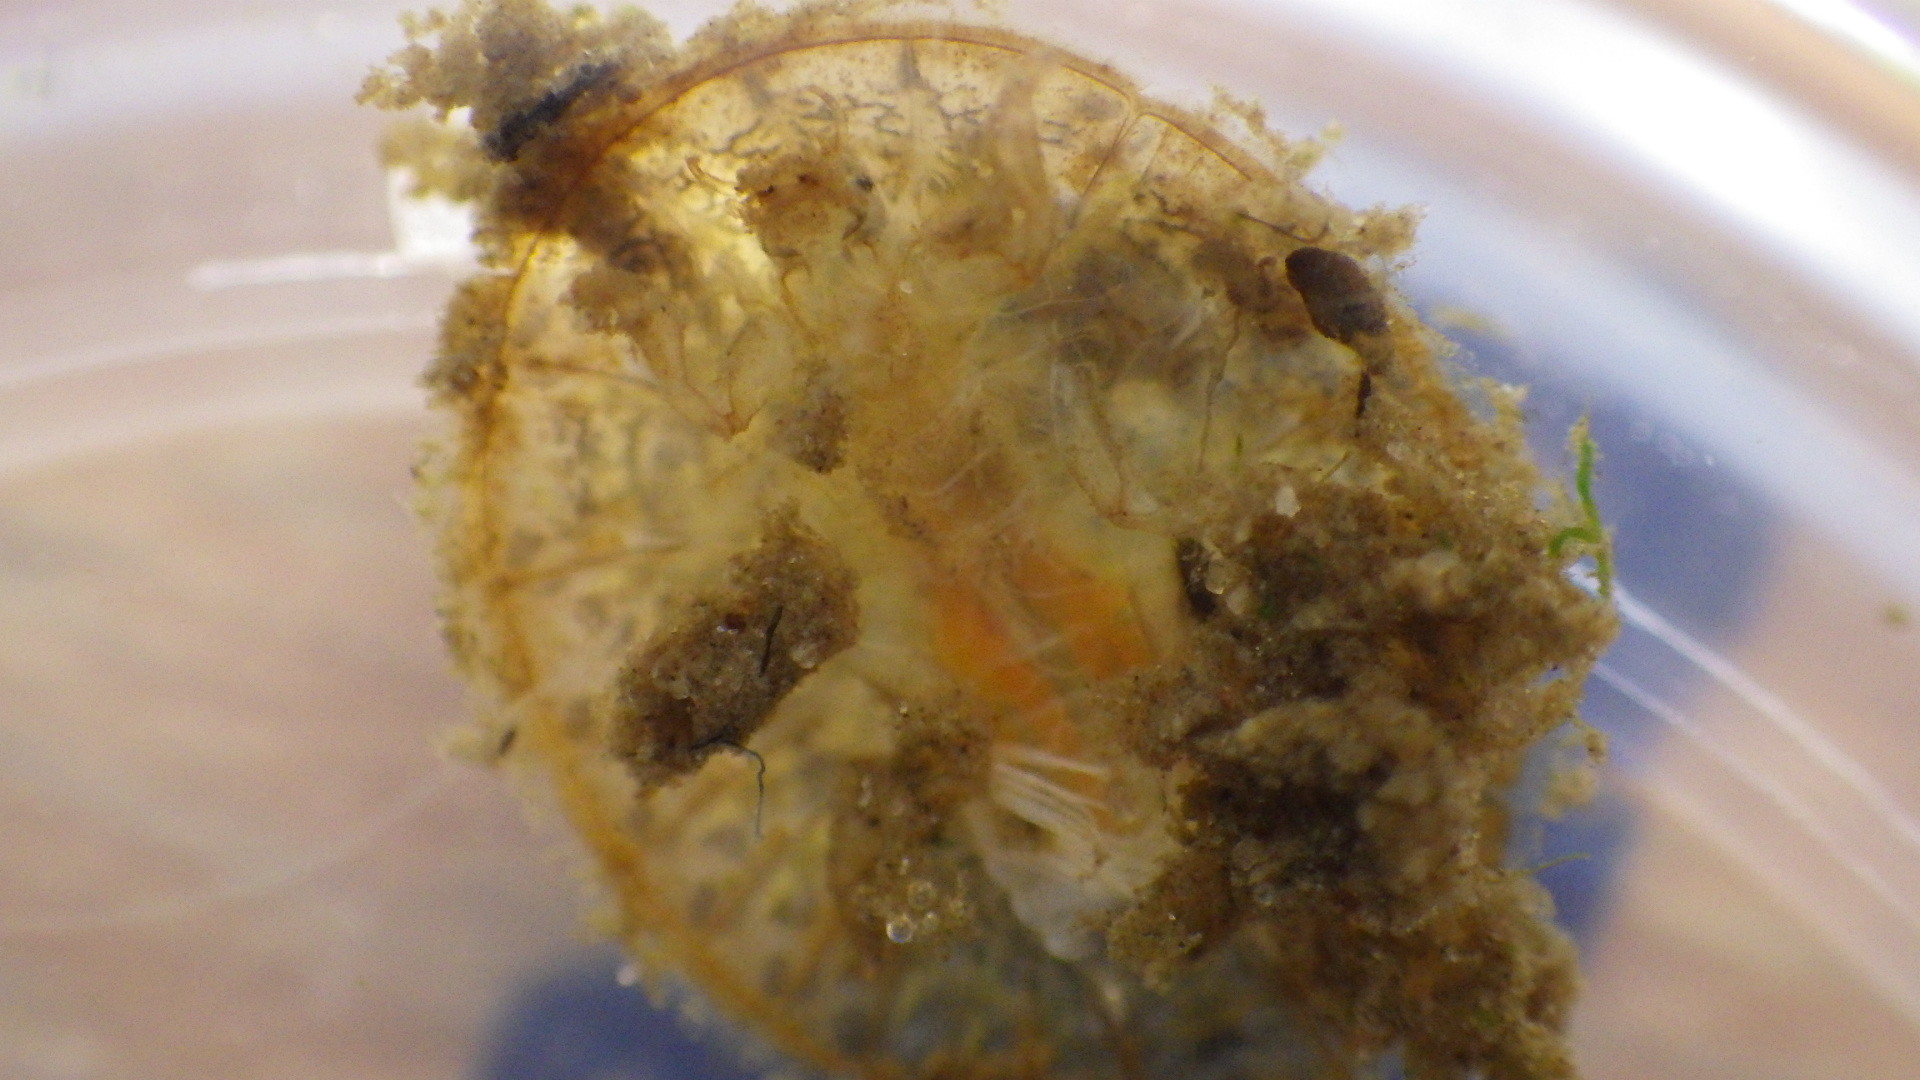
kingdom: Animalia
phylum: Arthropoda
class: Insecta
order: Coleoptera
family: Psephenidae
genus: Psephenus
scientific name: Psephenus herricki
